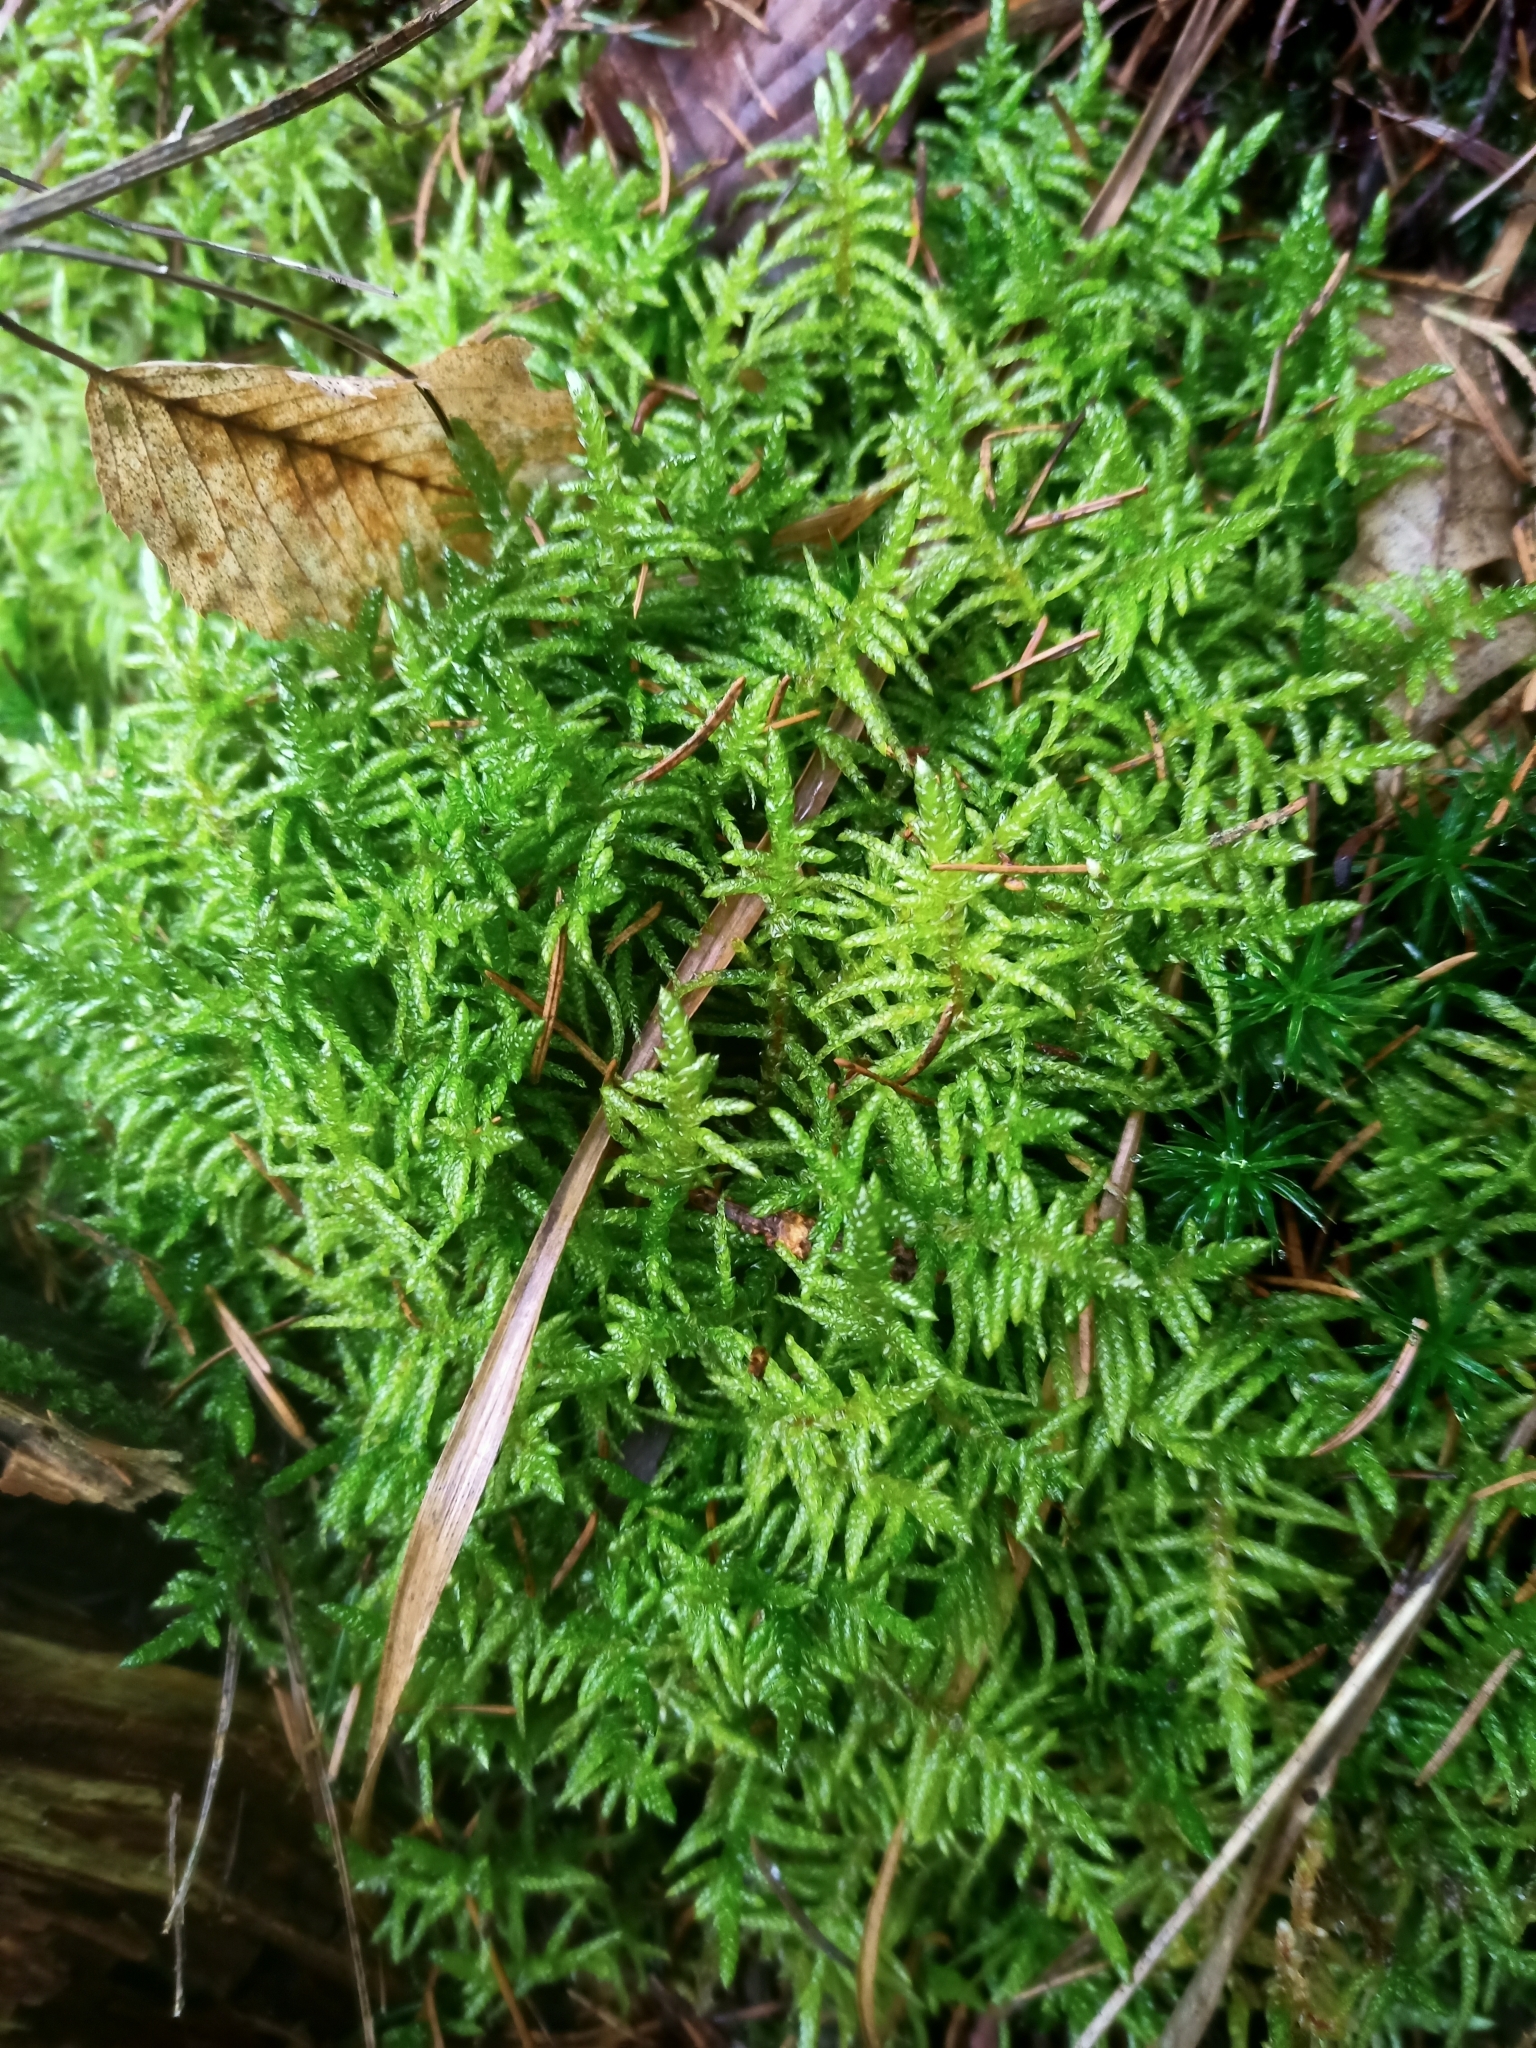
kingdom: Plantae
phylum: Bryophyta
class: Bryopsida
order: Hypnales
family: Brachytheciaceae
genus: Pseudoscleropodium
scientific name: Pseudoscleropodium purum
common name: Neat feather-moss
